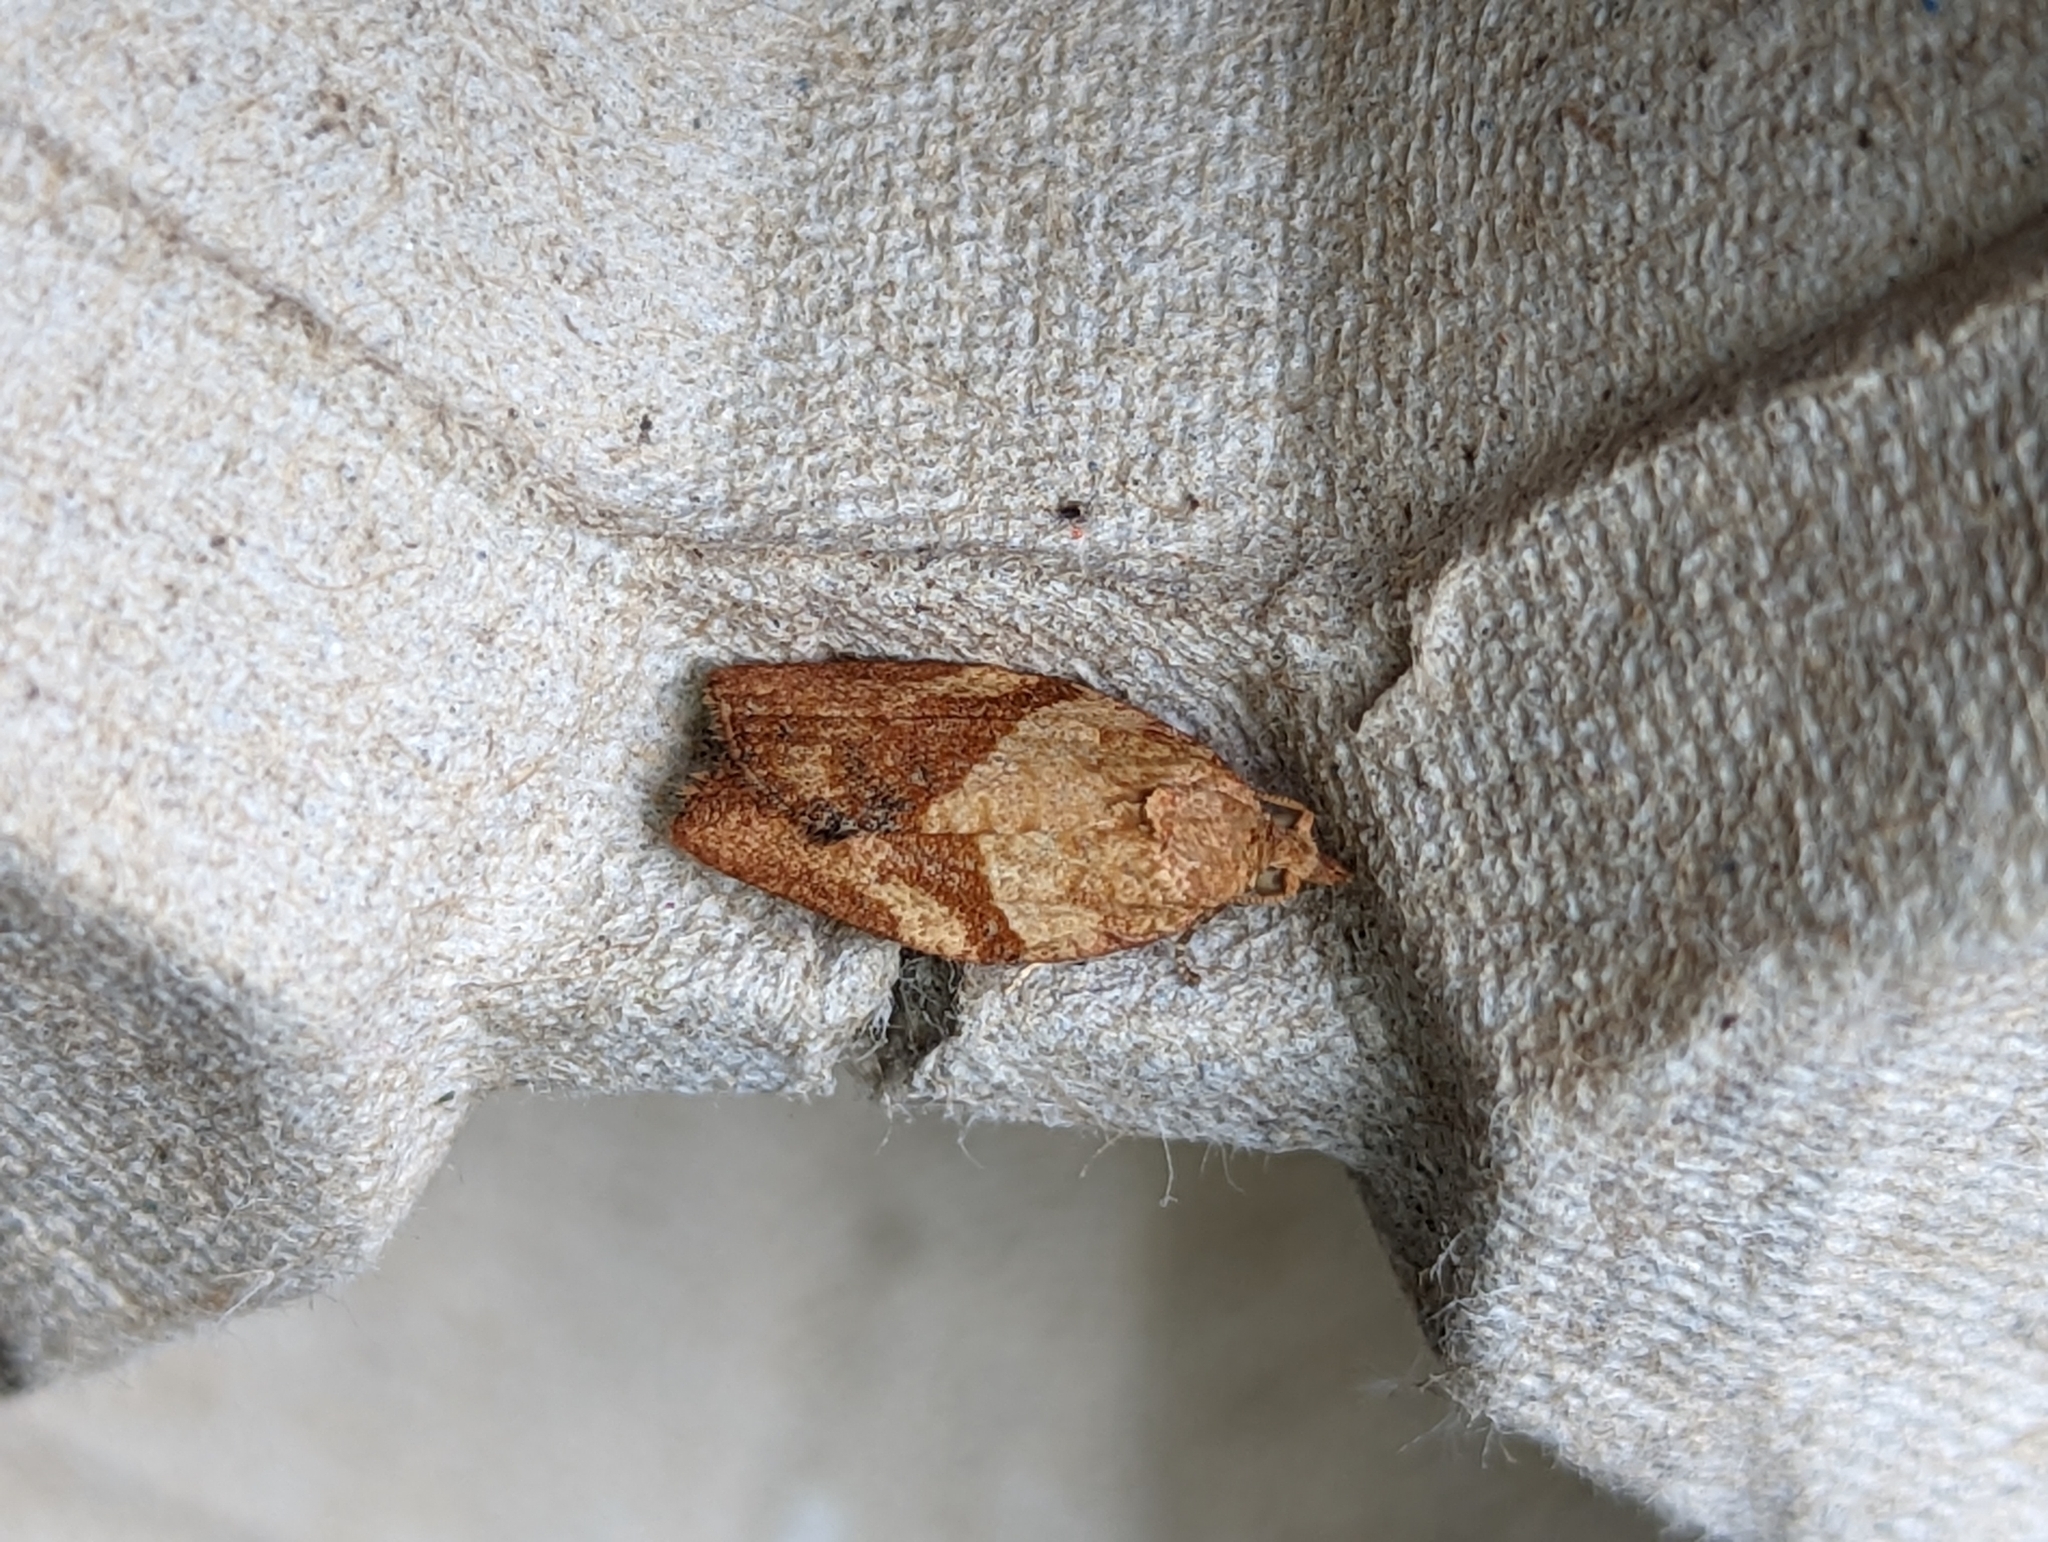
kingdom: Animalia
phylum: Arthropoda
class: Insecta
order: Lepidoptera
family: Tortricidae
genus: Epiphyas
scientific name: Epiphyas postvittana
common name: Light brown apple moth
